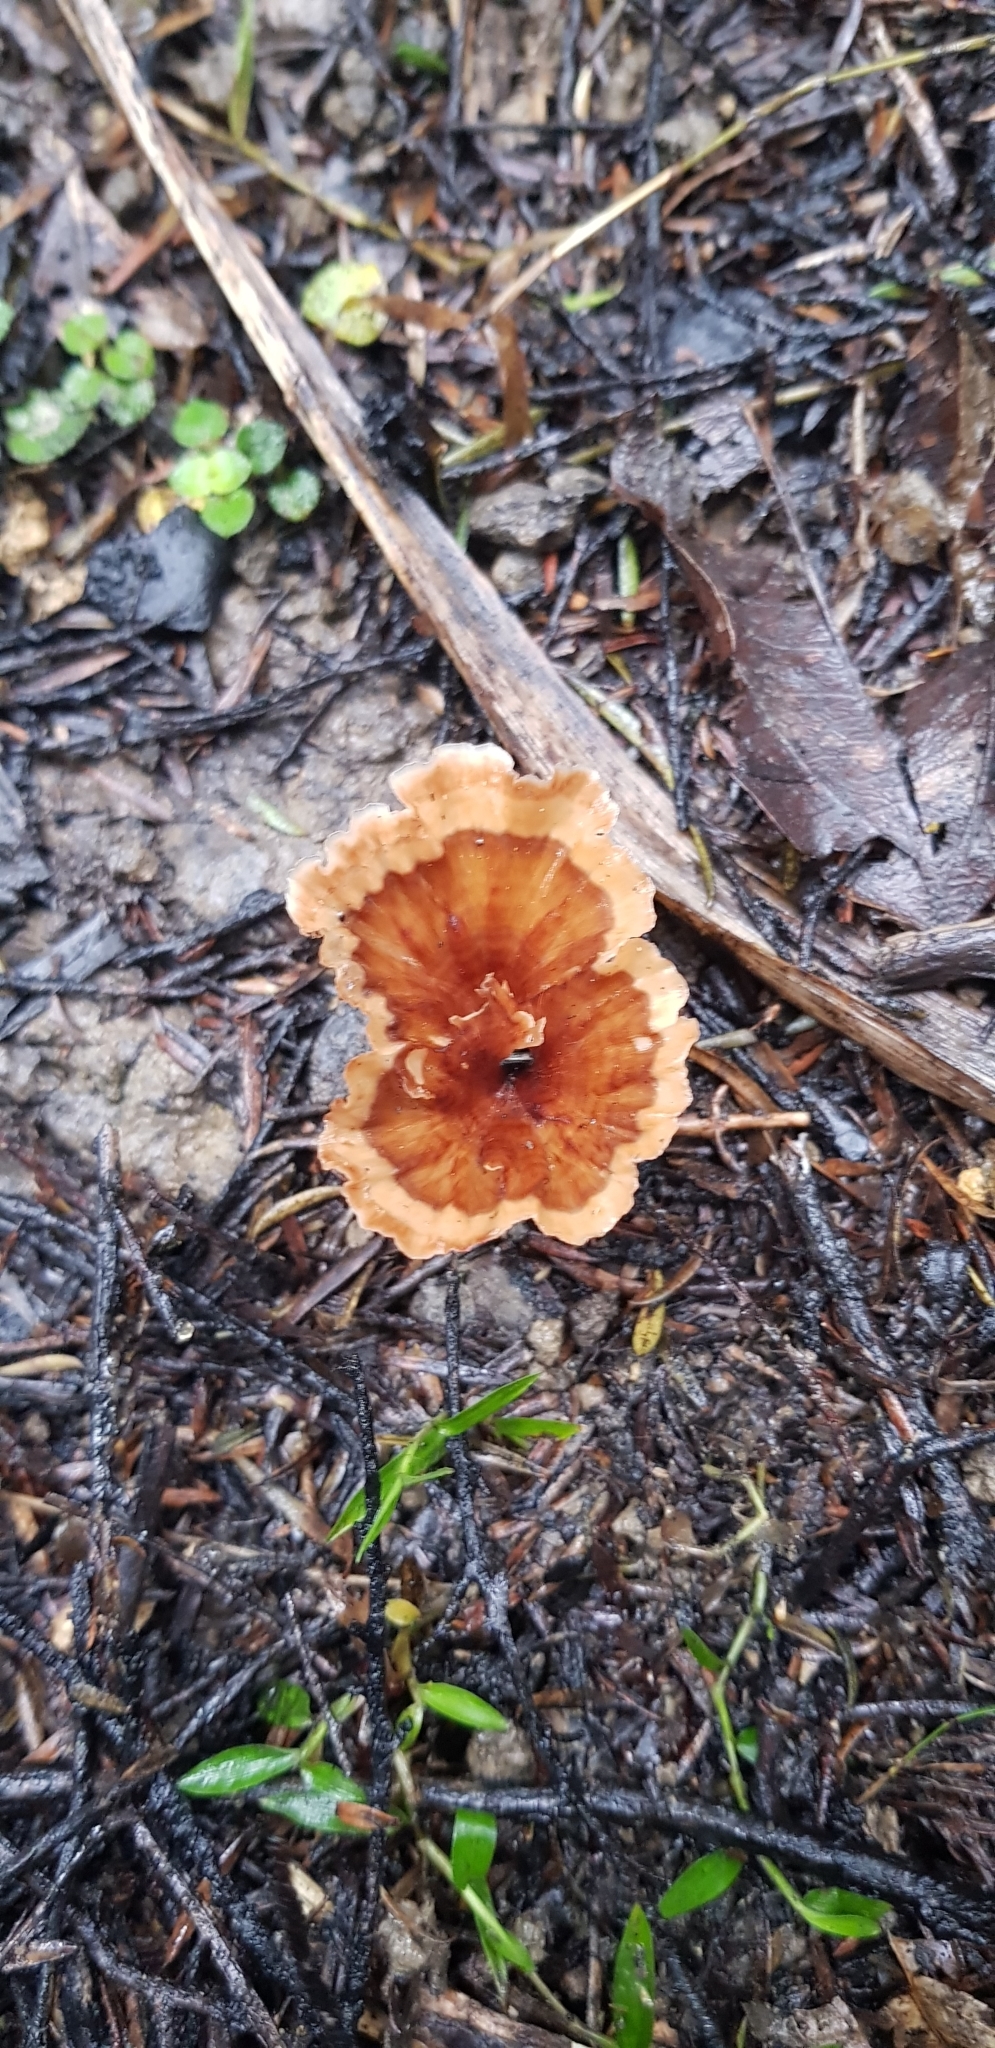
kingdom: Fungi
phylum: Basidiomycota
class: Agaricomycetes
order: Polyporales
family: Podoscyphaceae
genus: Podoscypha
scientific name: Podoscypha petalodes
